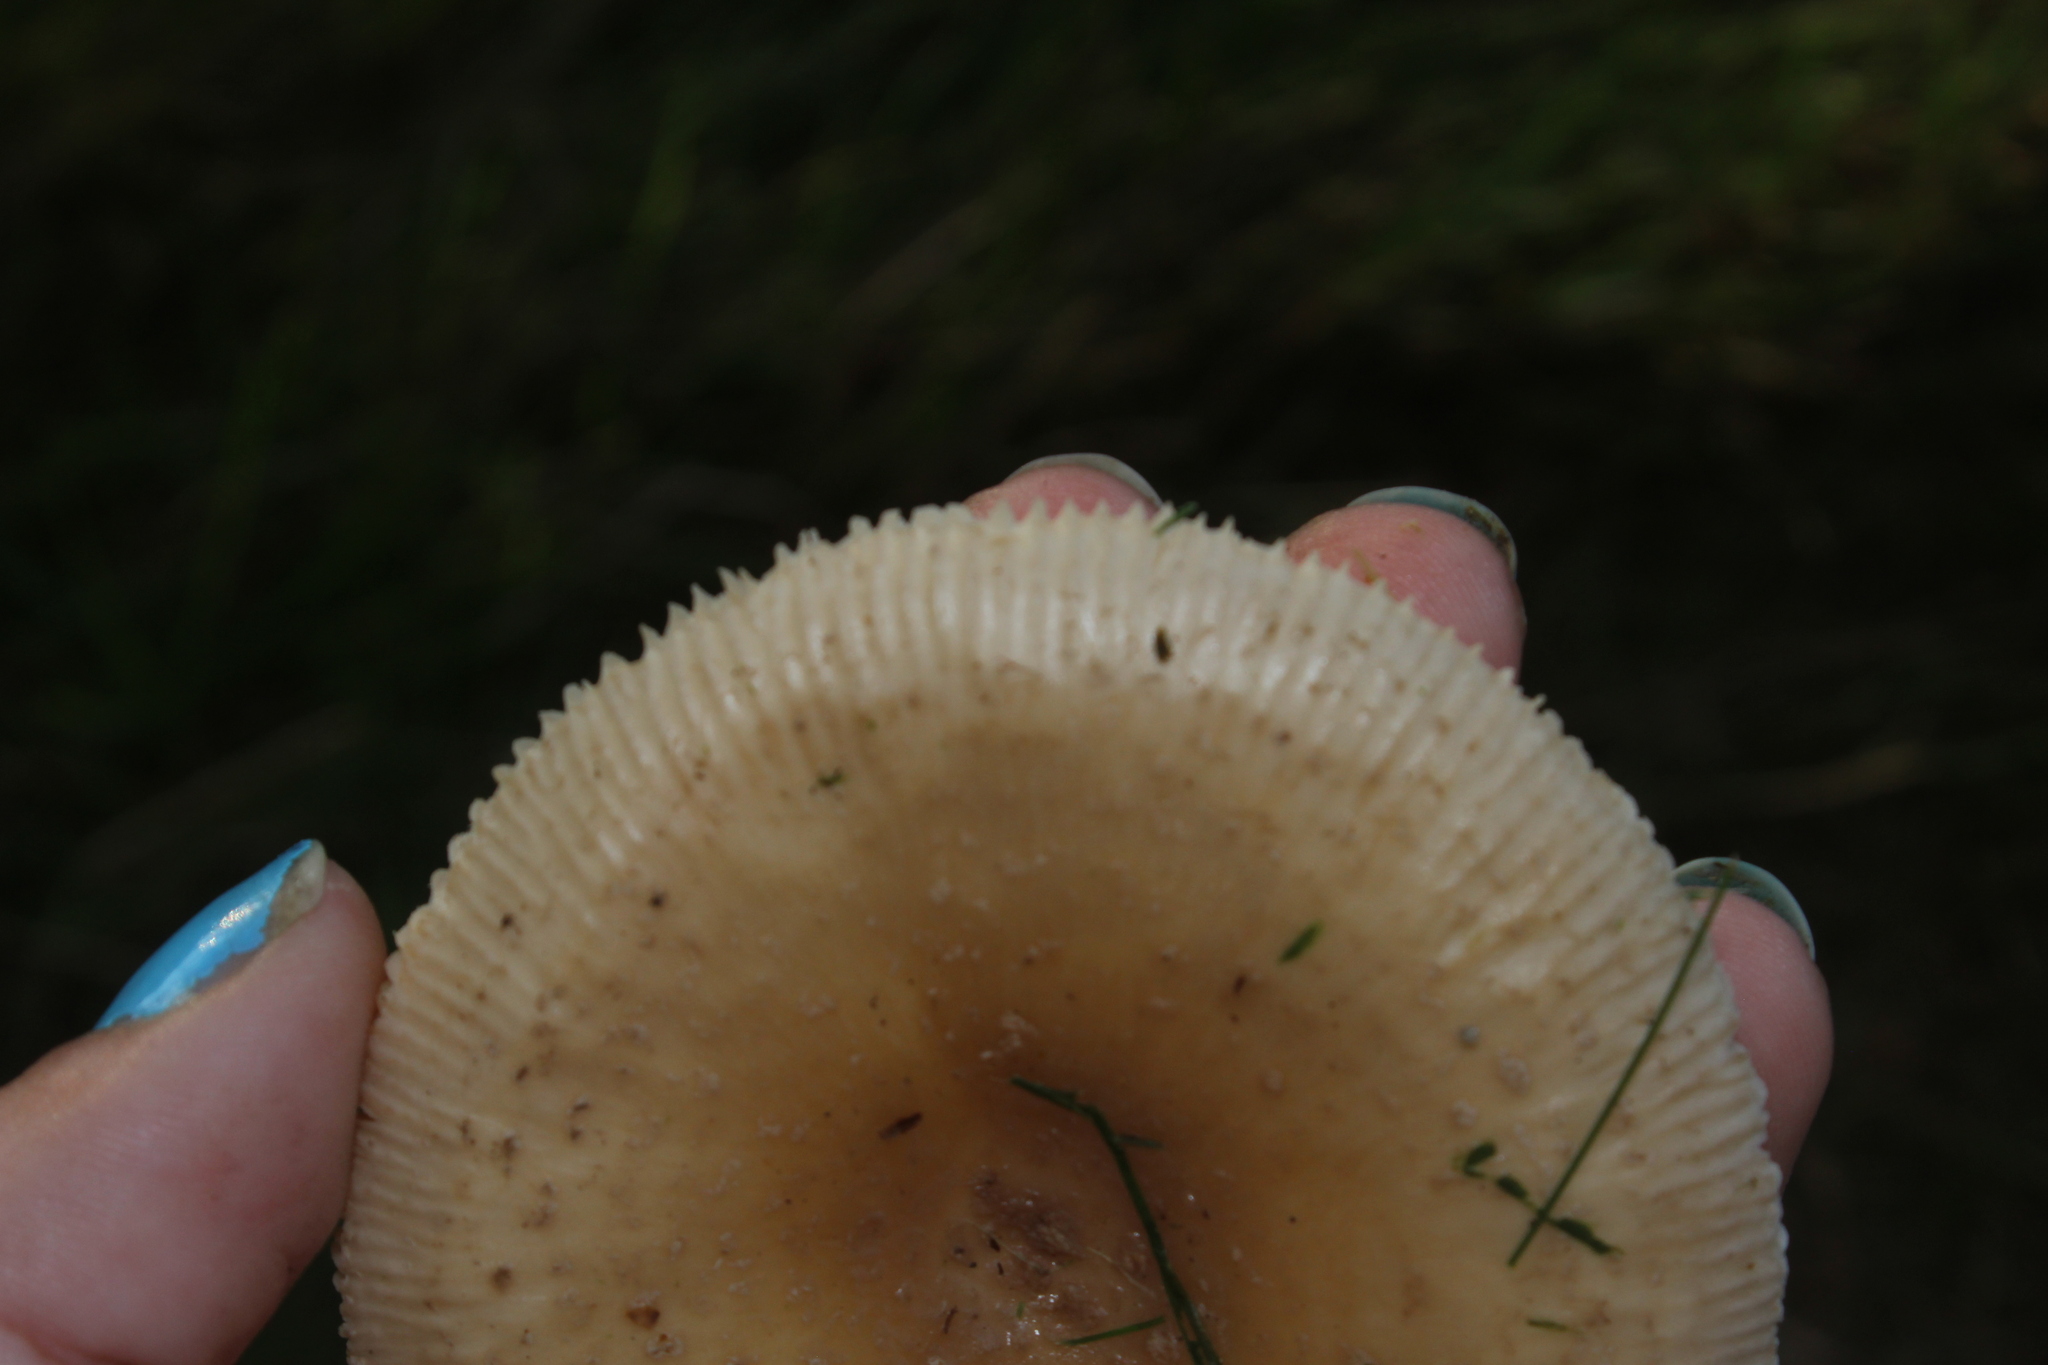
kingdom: Fungi
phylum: Basidiomycota
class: Agaricomycetes
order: Agaricales
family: Amanitaceae
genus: Amanita
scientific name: Amanita
